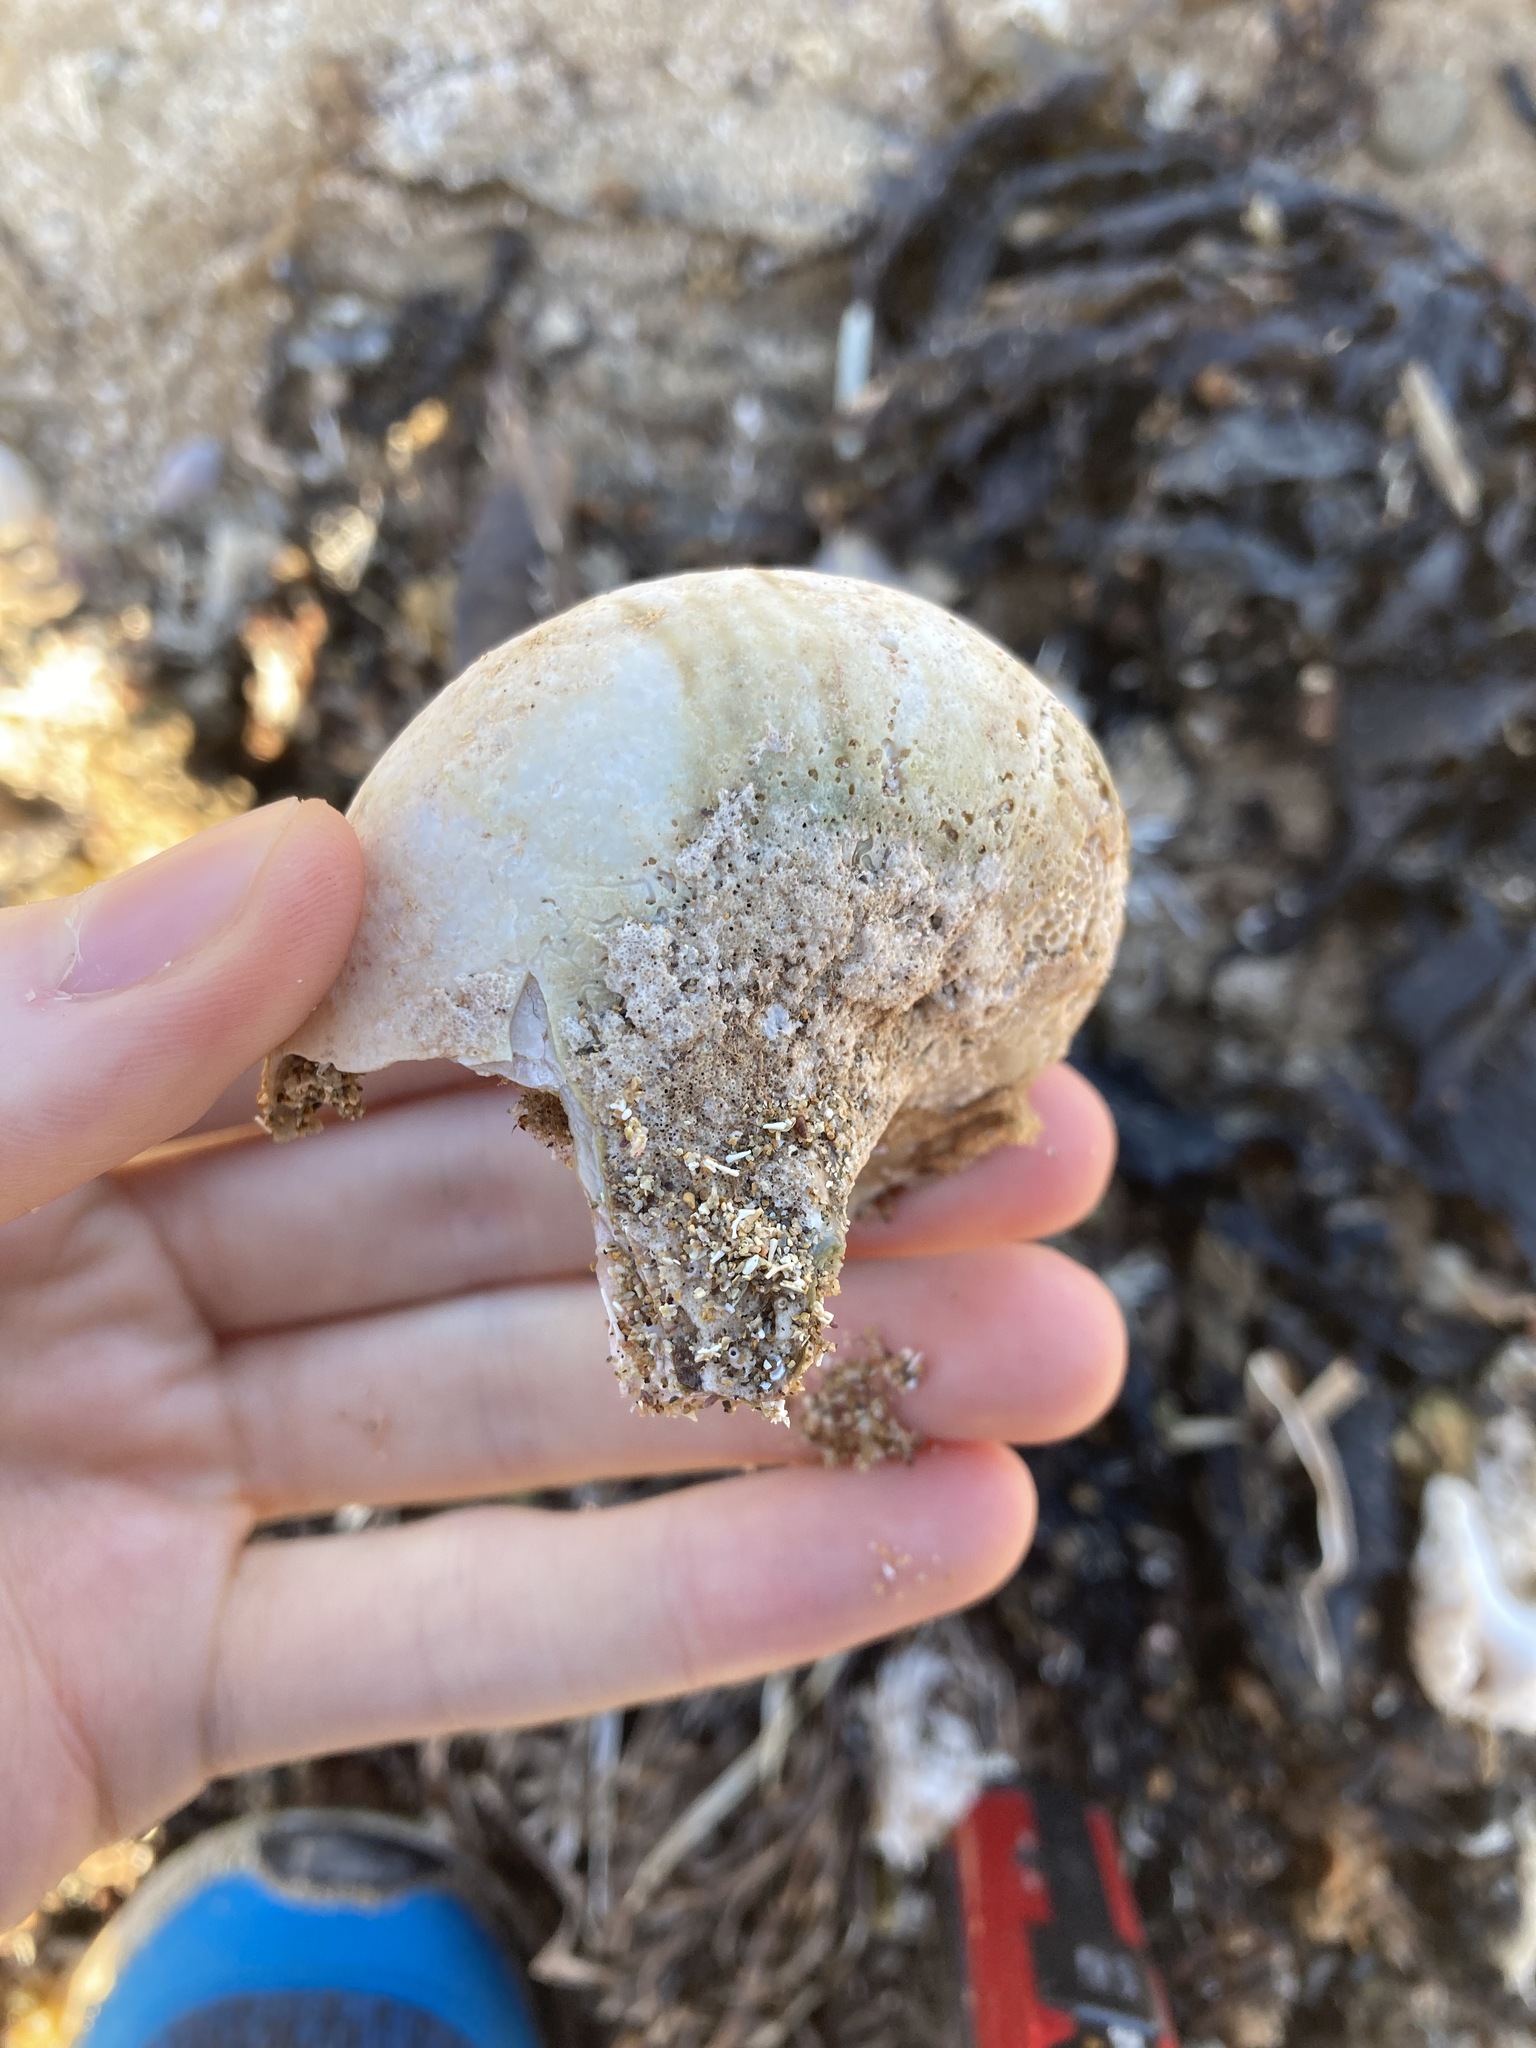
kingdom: Animalia
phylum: Mollusca
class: Gastropoda
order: Trochida
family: Turbinidae
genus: Turbo
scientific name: Turbo militaris
